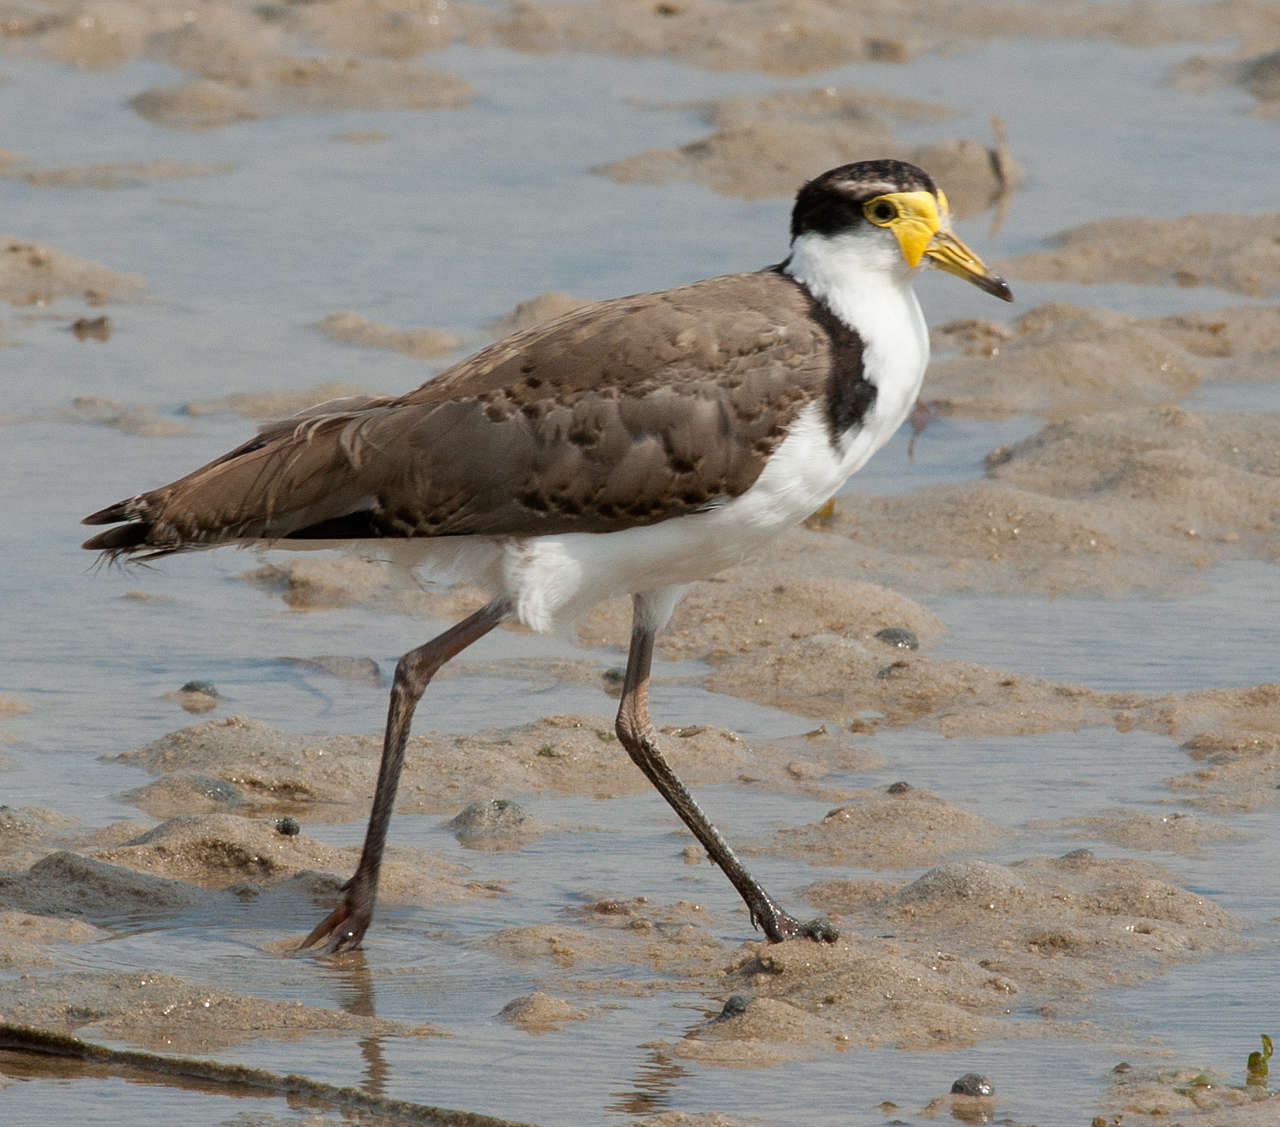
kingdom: Animalia
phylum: Chordata
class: Aves
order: Charadriiformes
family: Charadriidae
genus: Vanellus
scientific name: Vanellus miles
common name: Masked lapwing
